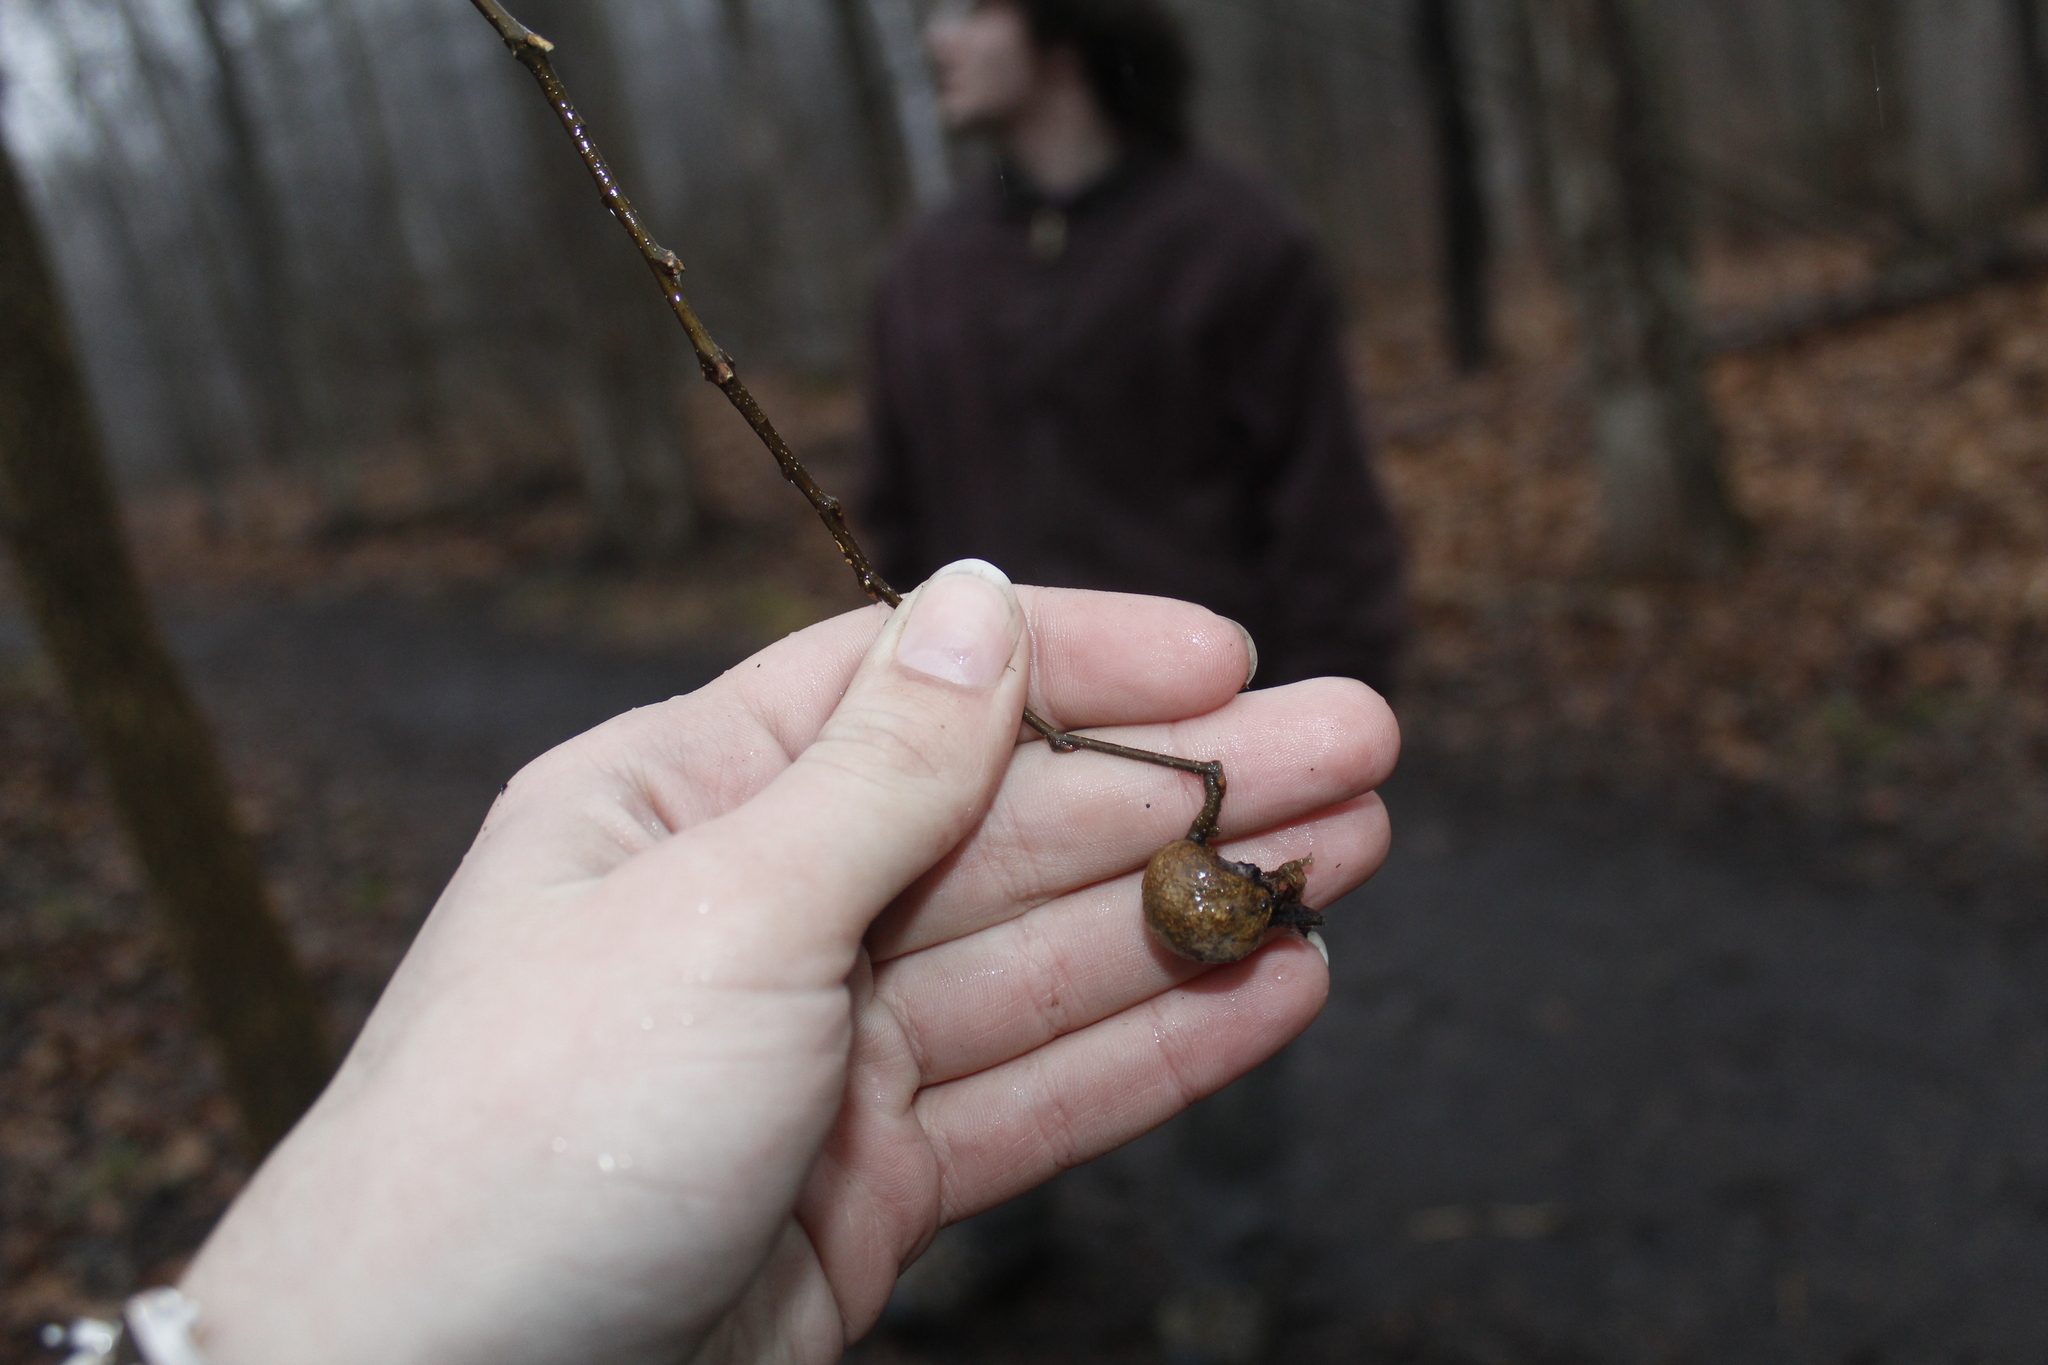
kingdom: Plantae
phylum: Tracheophyta
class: Magnoliopsida
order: Rosales
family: Cannabaceae
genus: Celtis
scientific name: Celtis occidentalis
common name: Common hackberry
